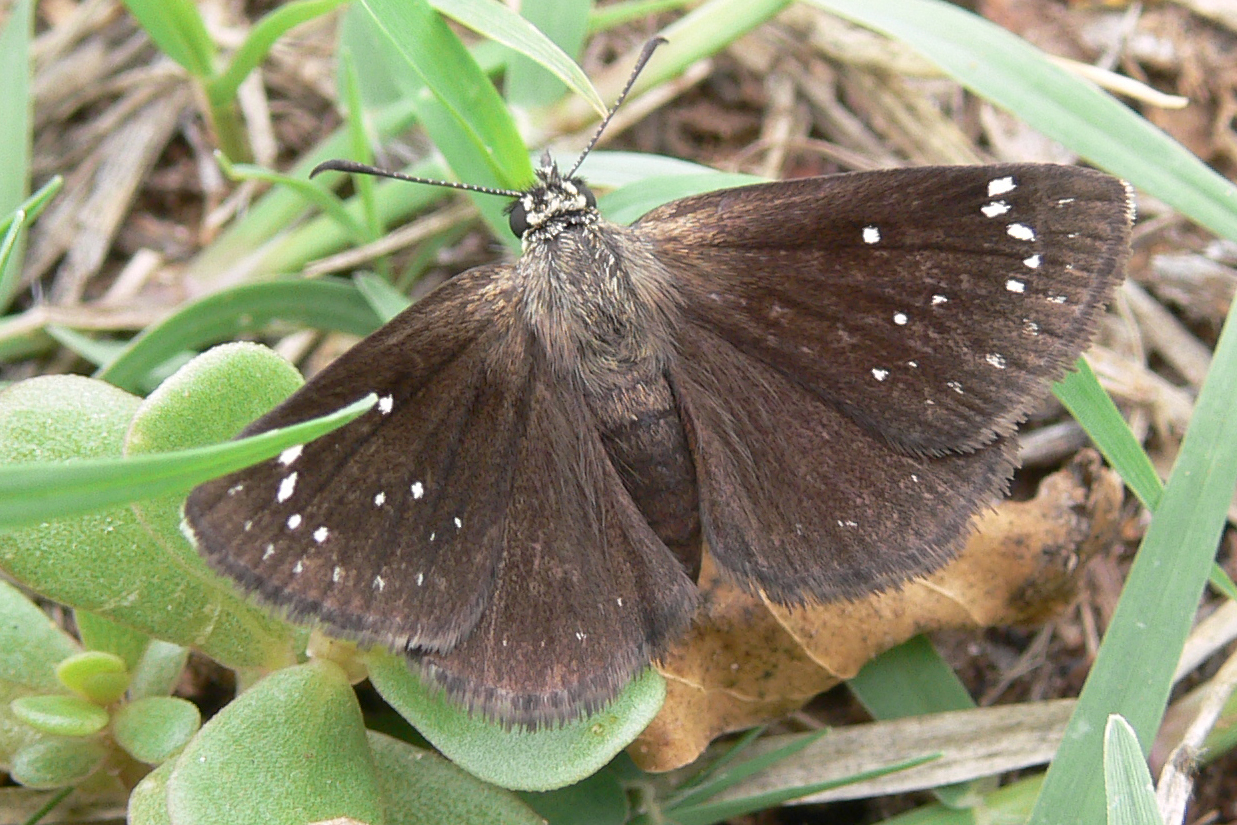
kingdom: Animalia
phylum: Arthropoda
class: Insecta
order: Lepidoptera
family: Hesperiidae
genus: Pholisora
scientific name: Pholisora catullus
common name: Common sootywing
